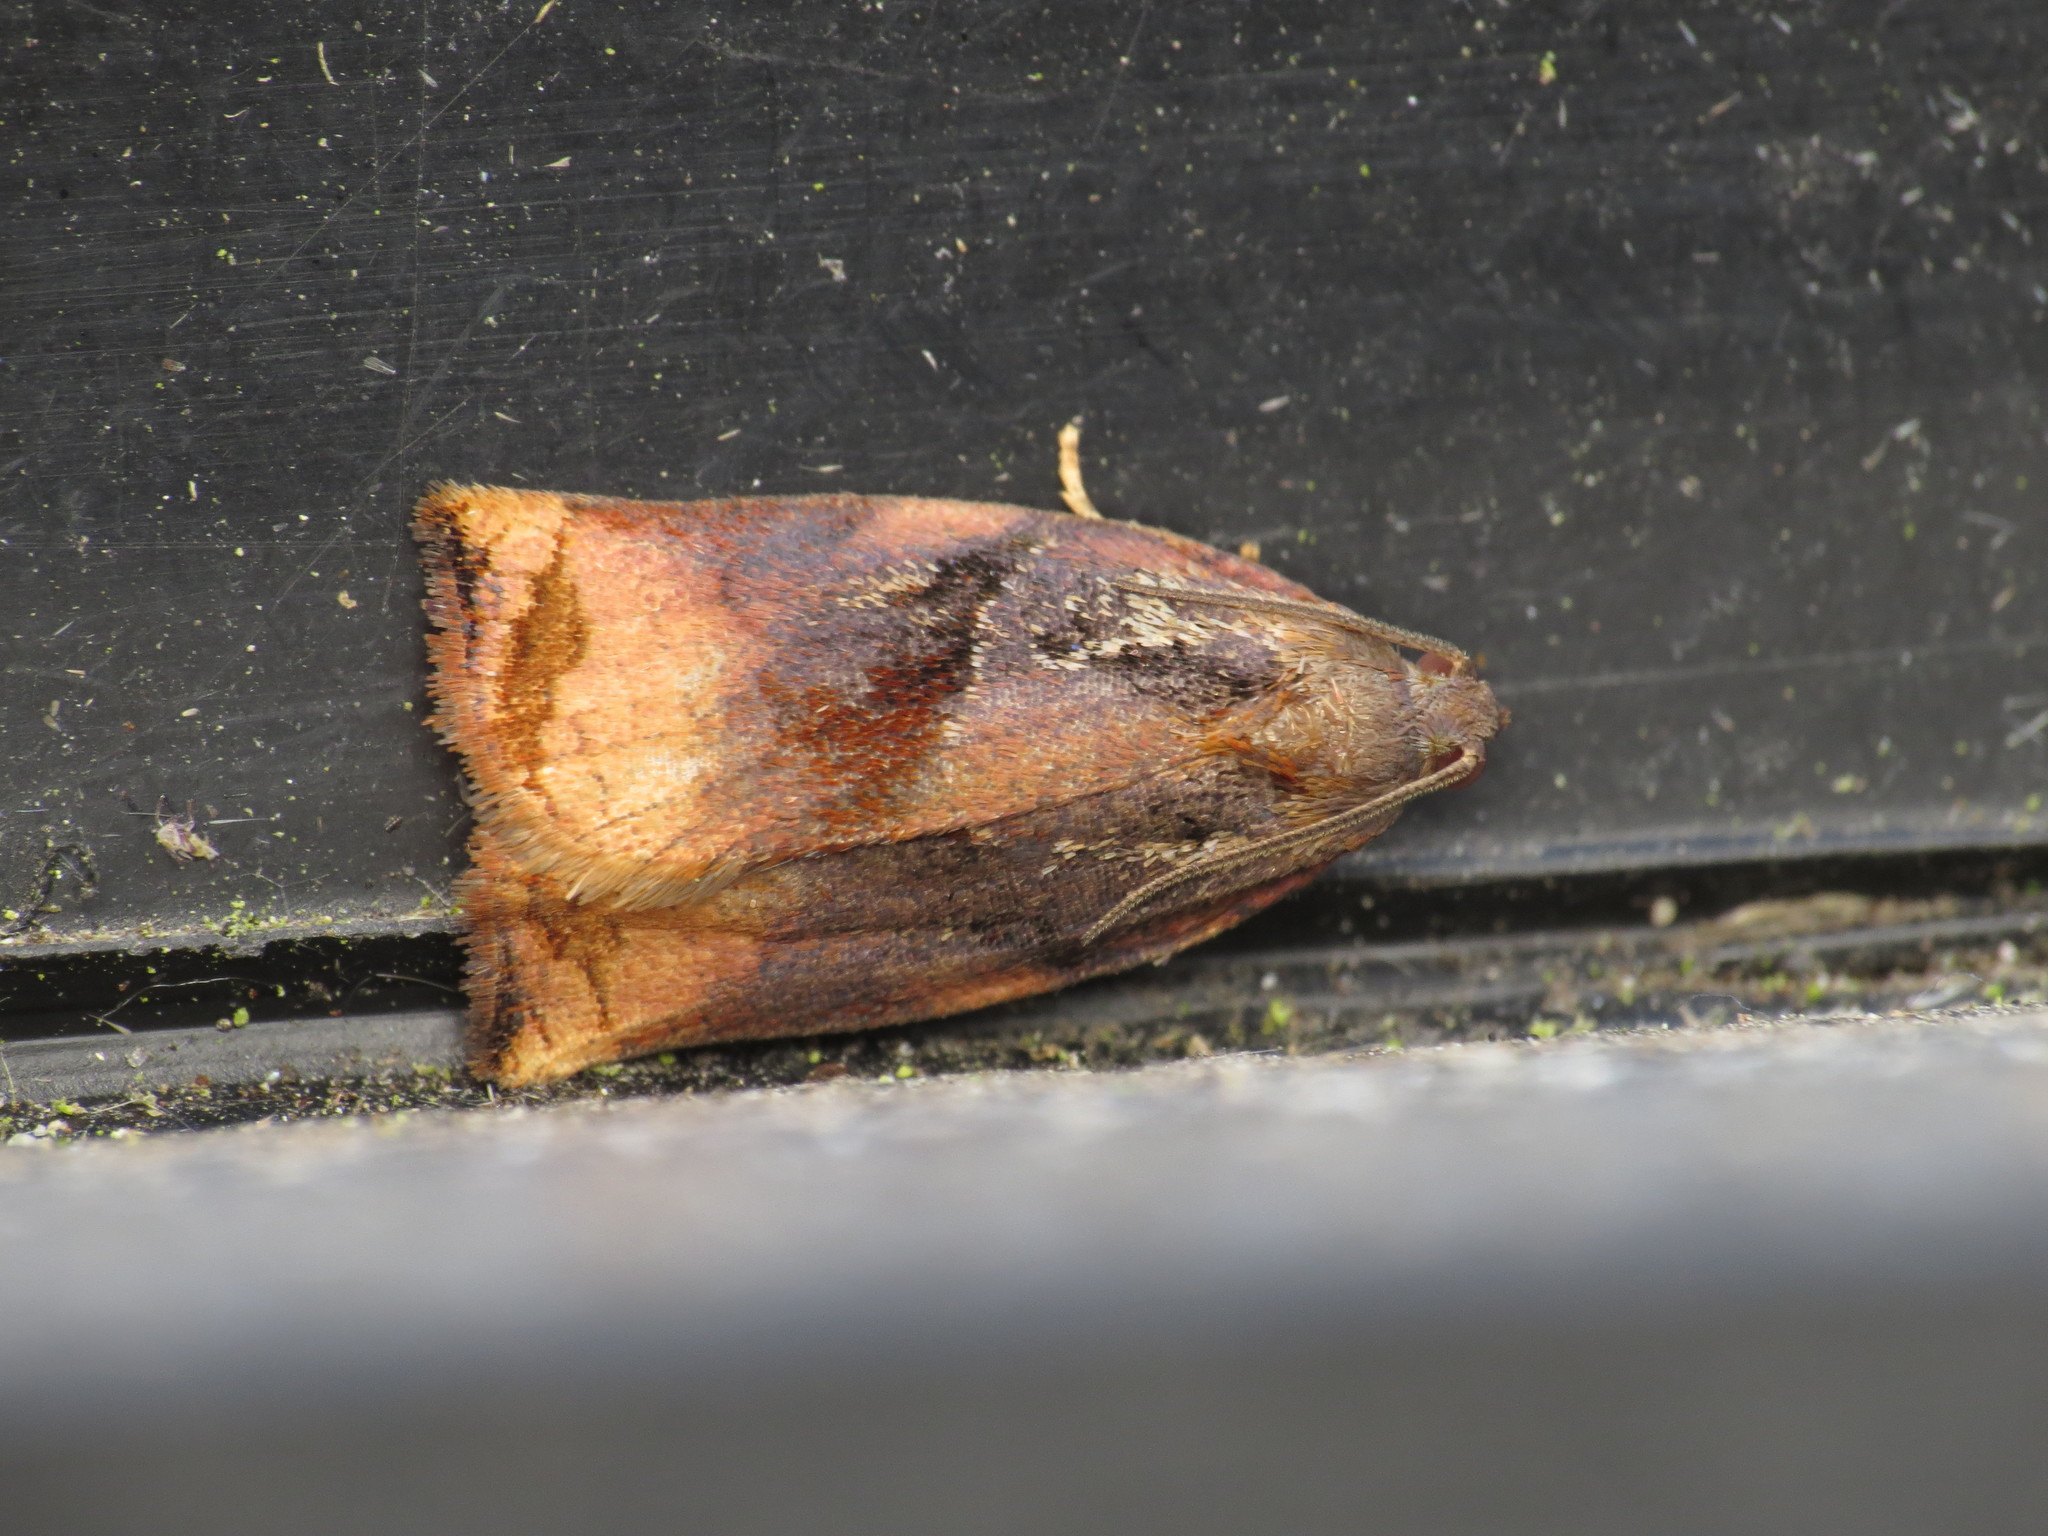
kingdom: Animalia
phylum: Arthropoda
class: Insecta
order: Lepidoptera
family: Tortricidae
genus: Archips
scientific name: Archips podana
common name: Large fruit-tree tortrix
